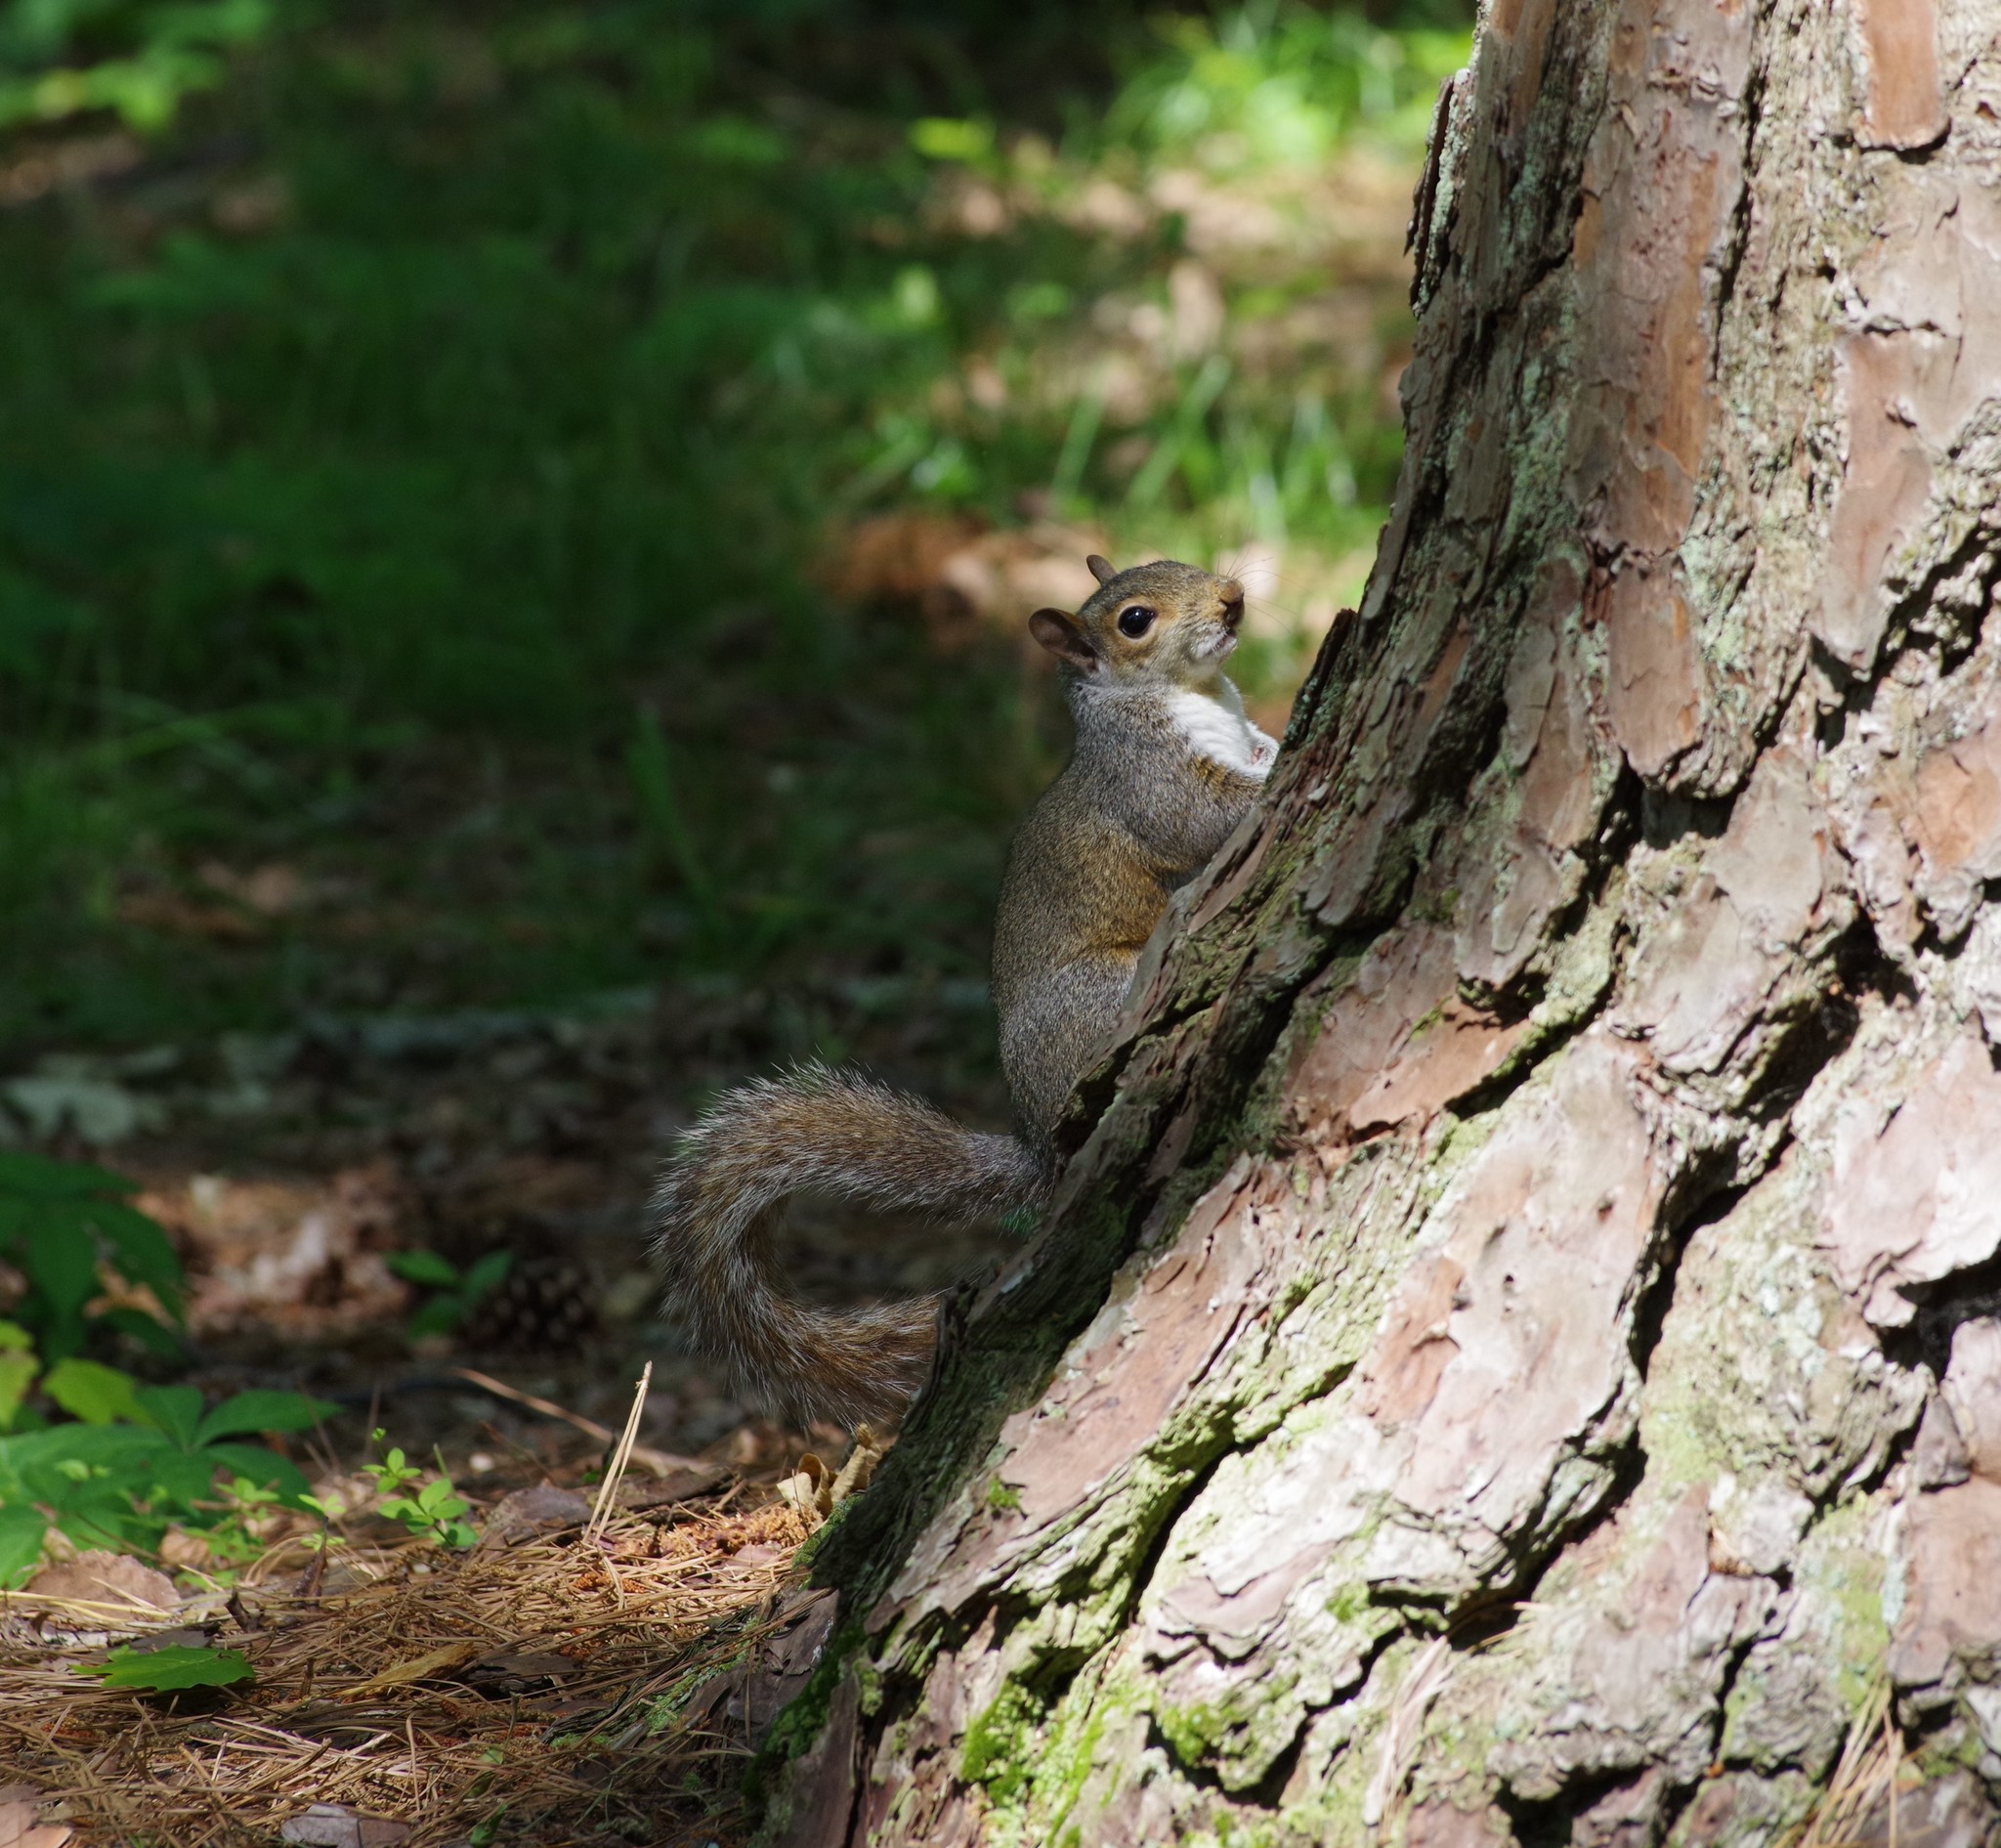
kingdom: Animalia
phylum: Chordata
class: Mammalia
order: Rodentia
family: Sciuridae
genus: Sciurus
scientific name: Sciurus carolinensis
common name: Eastern gray squirrel
